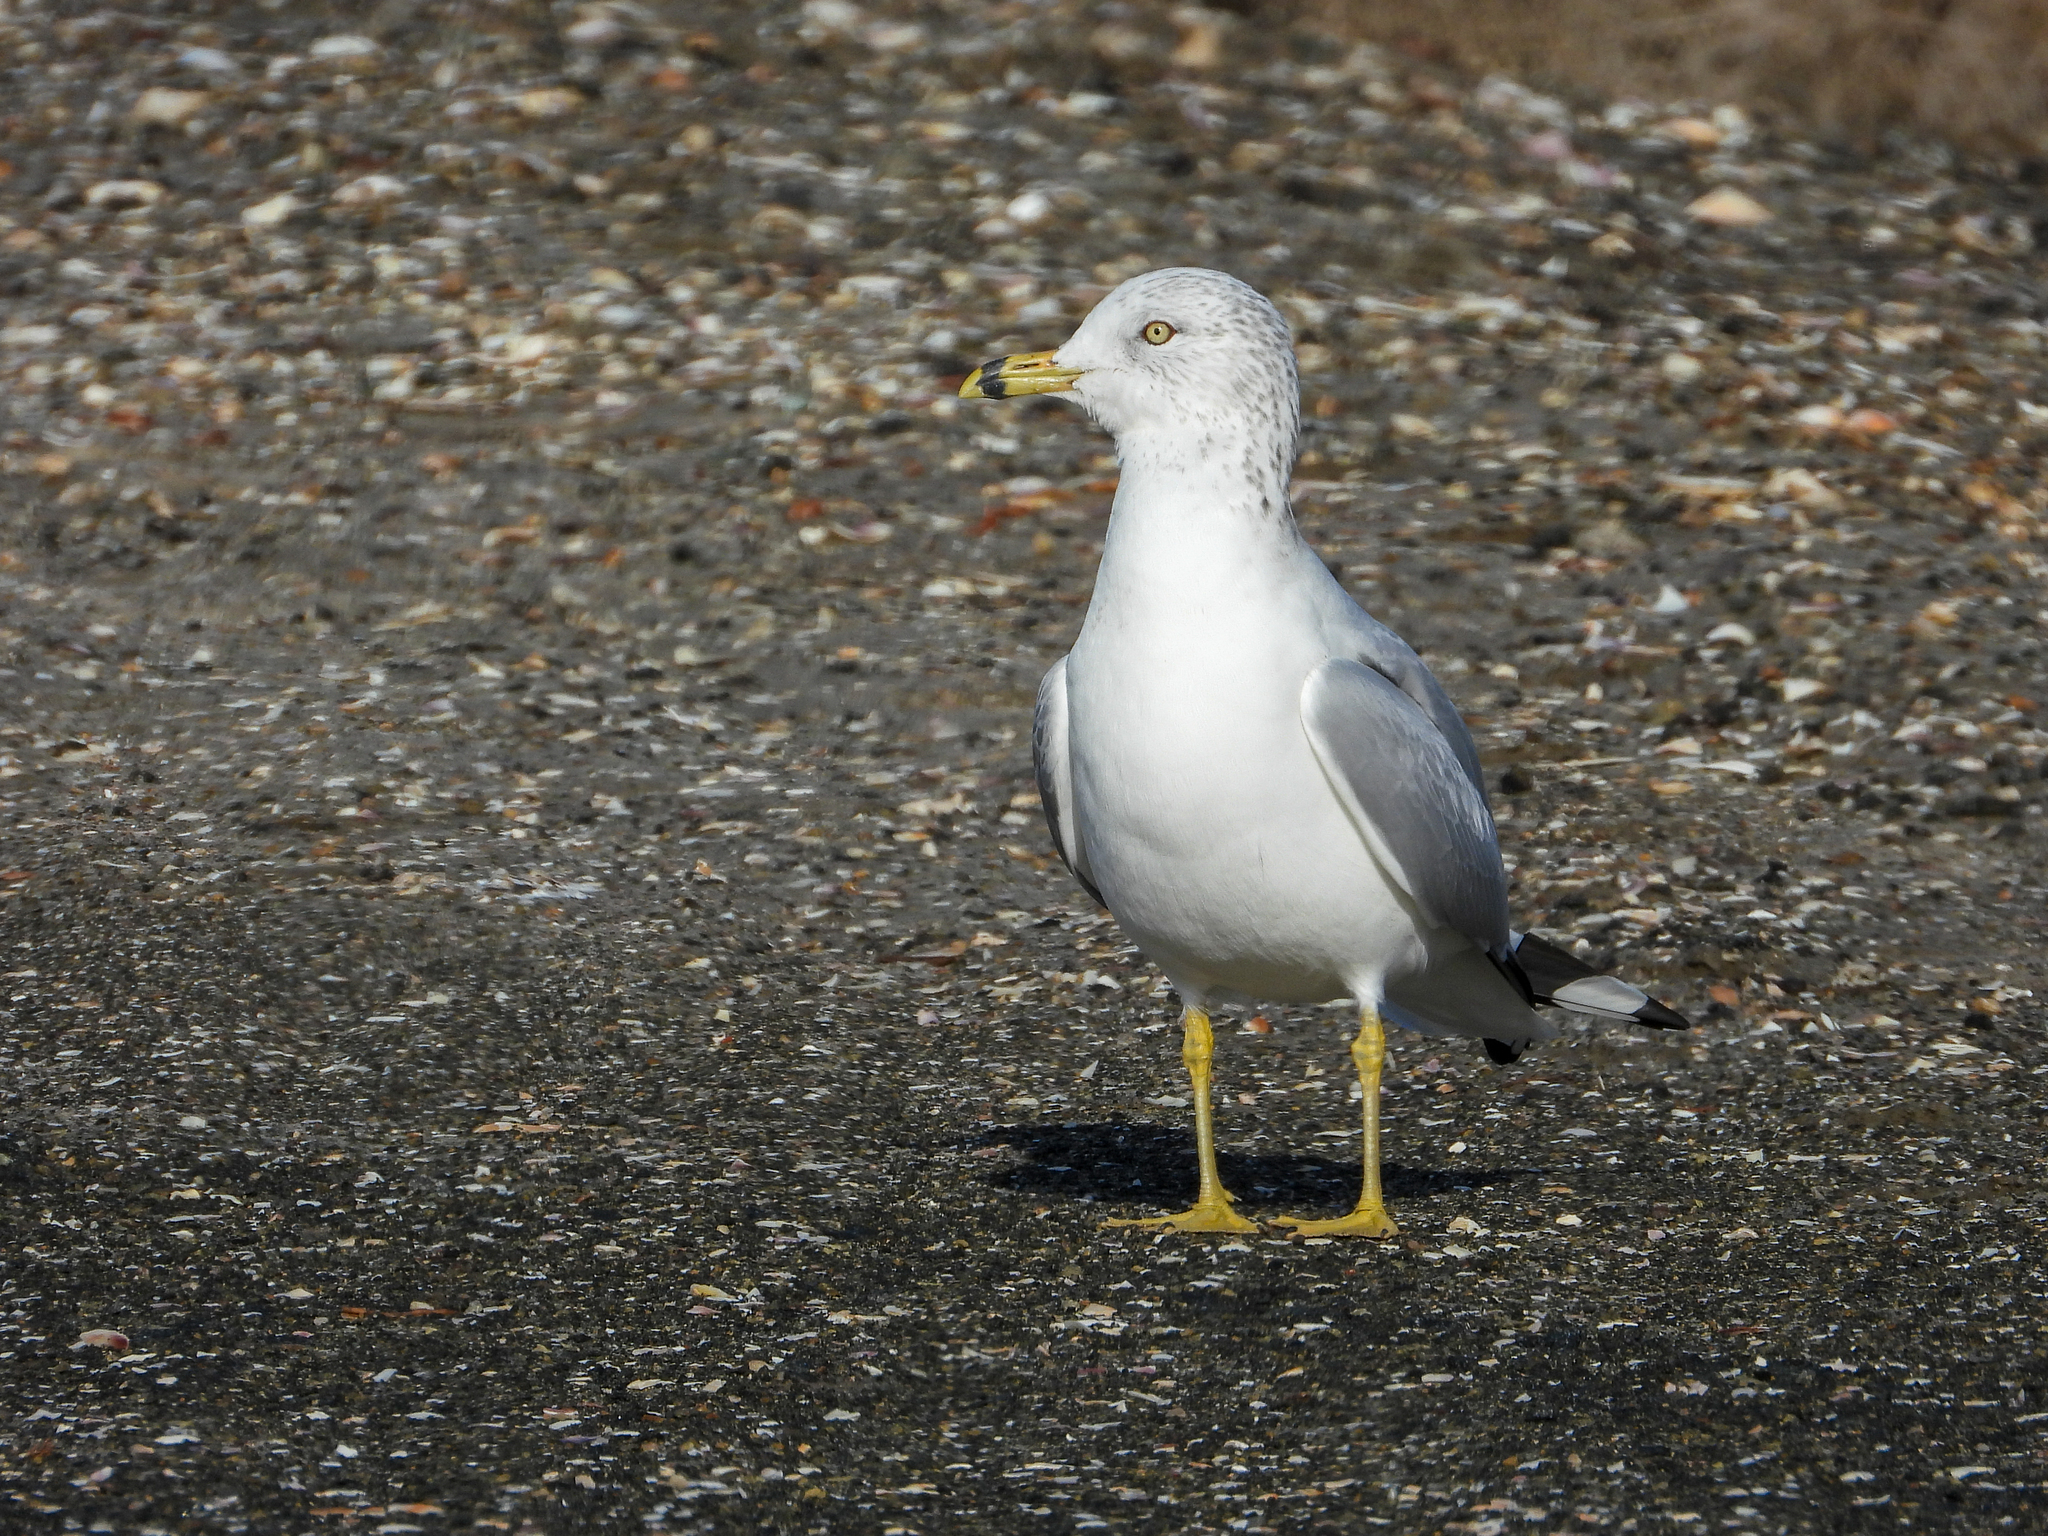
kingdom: Animalia
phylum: Chordata
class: Aves
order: Charadriiformes
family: Laridae
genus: Larus
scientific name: Larus delawarensis
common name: Ring-billed gull
